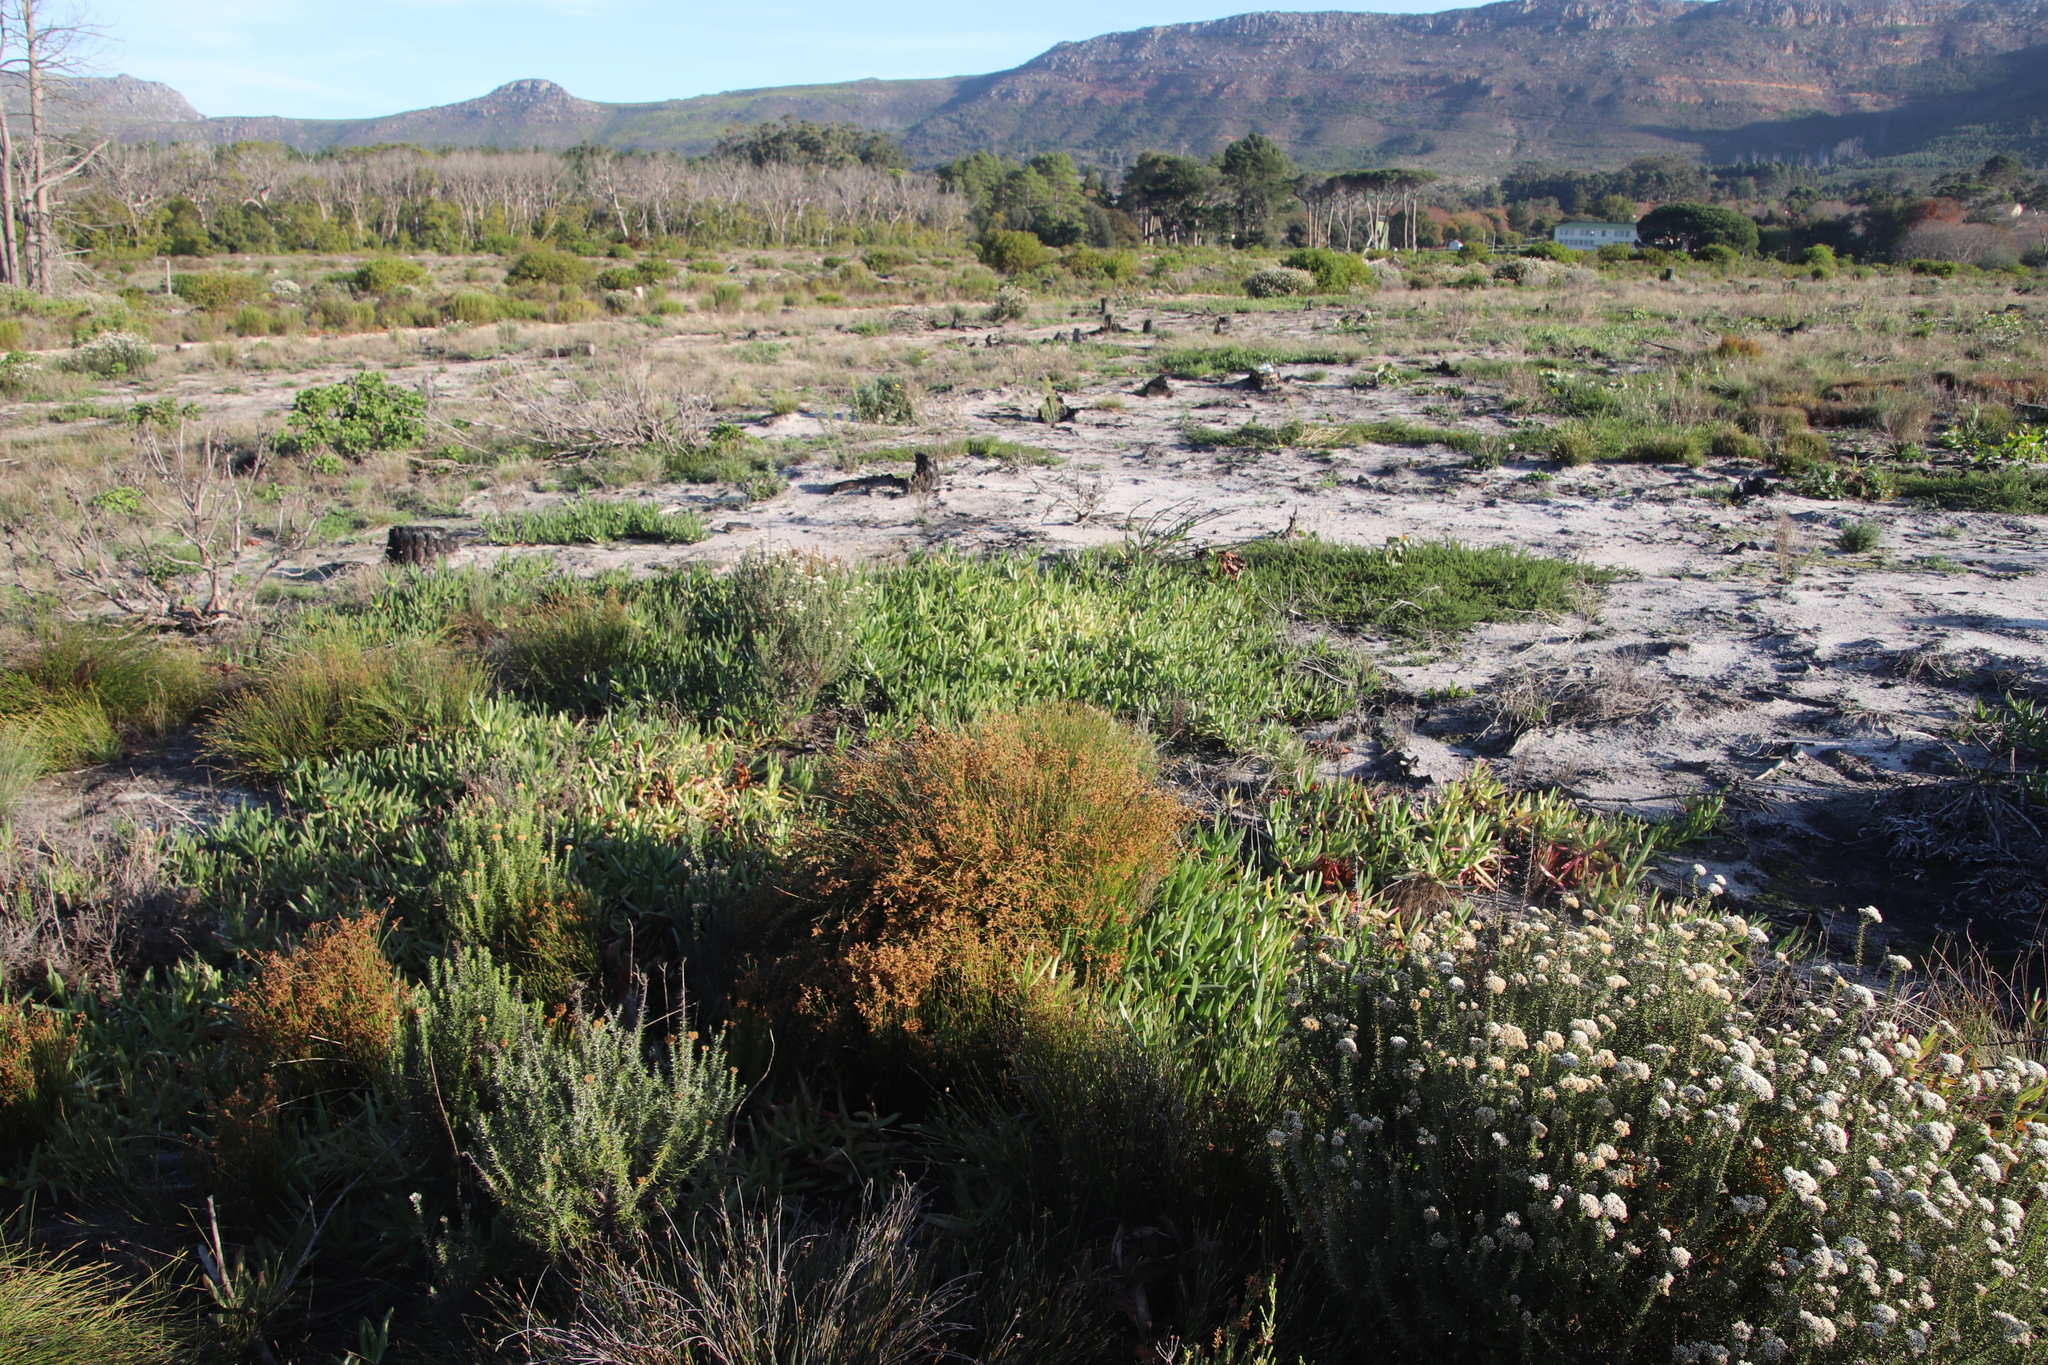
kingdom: Plantae
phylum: Tracheophyta
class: Liliopsida
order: Poales
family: Restionaceae
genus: Mastersiella
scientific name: Mastersiella digitata
